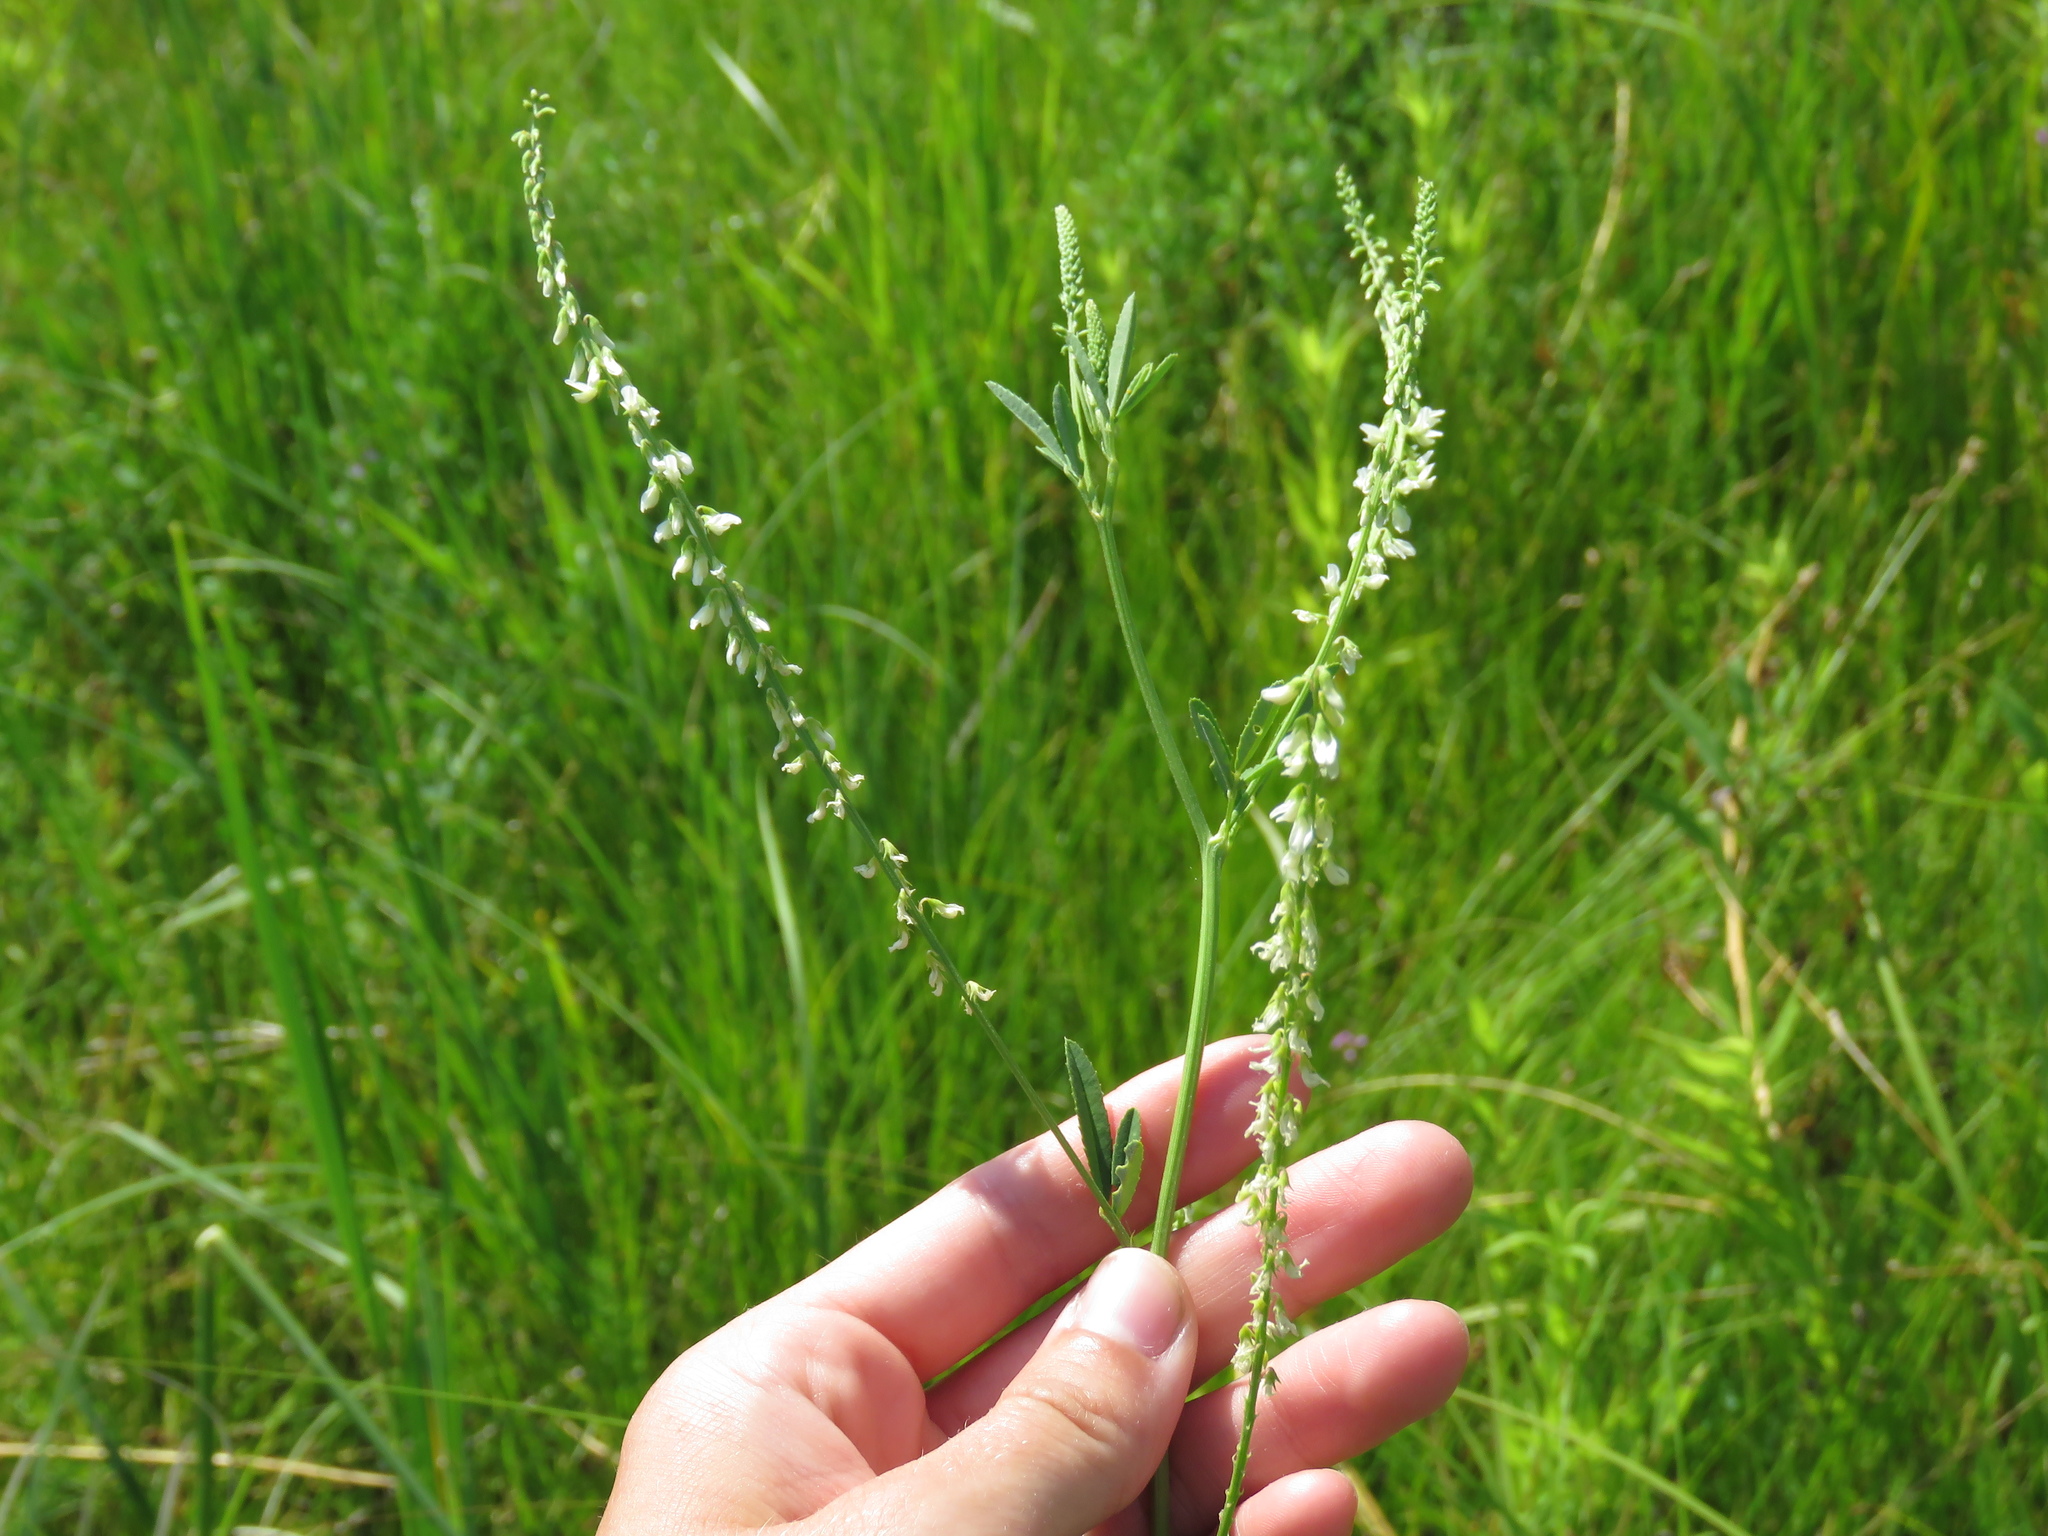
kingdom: Plantae
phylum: Tracheophyta
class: Magnoliopsida
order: Fabales
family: Fabaceae
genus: Melilotus
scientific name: Melilotus albus
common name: White melilot
